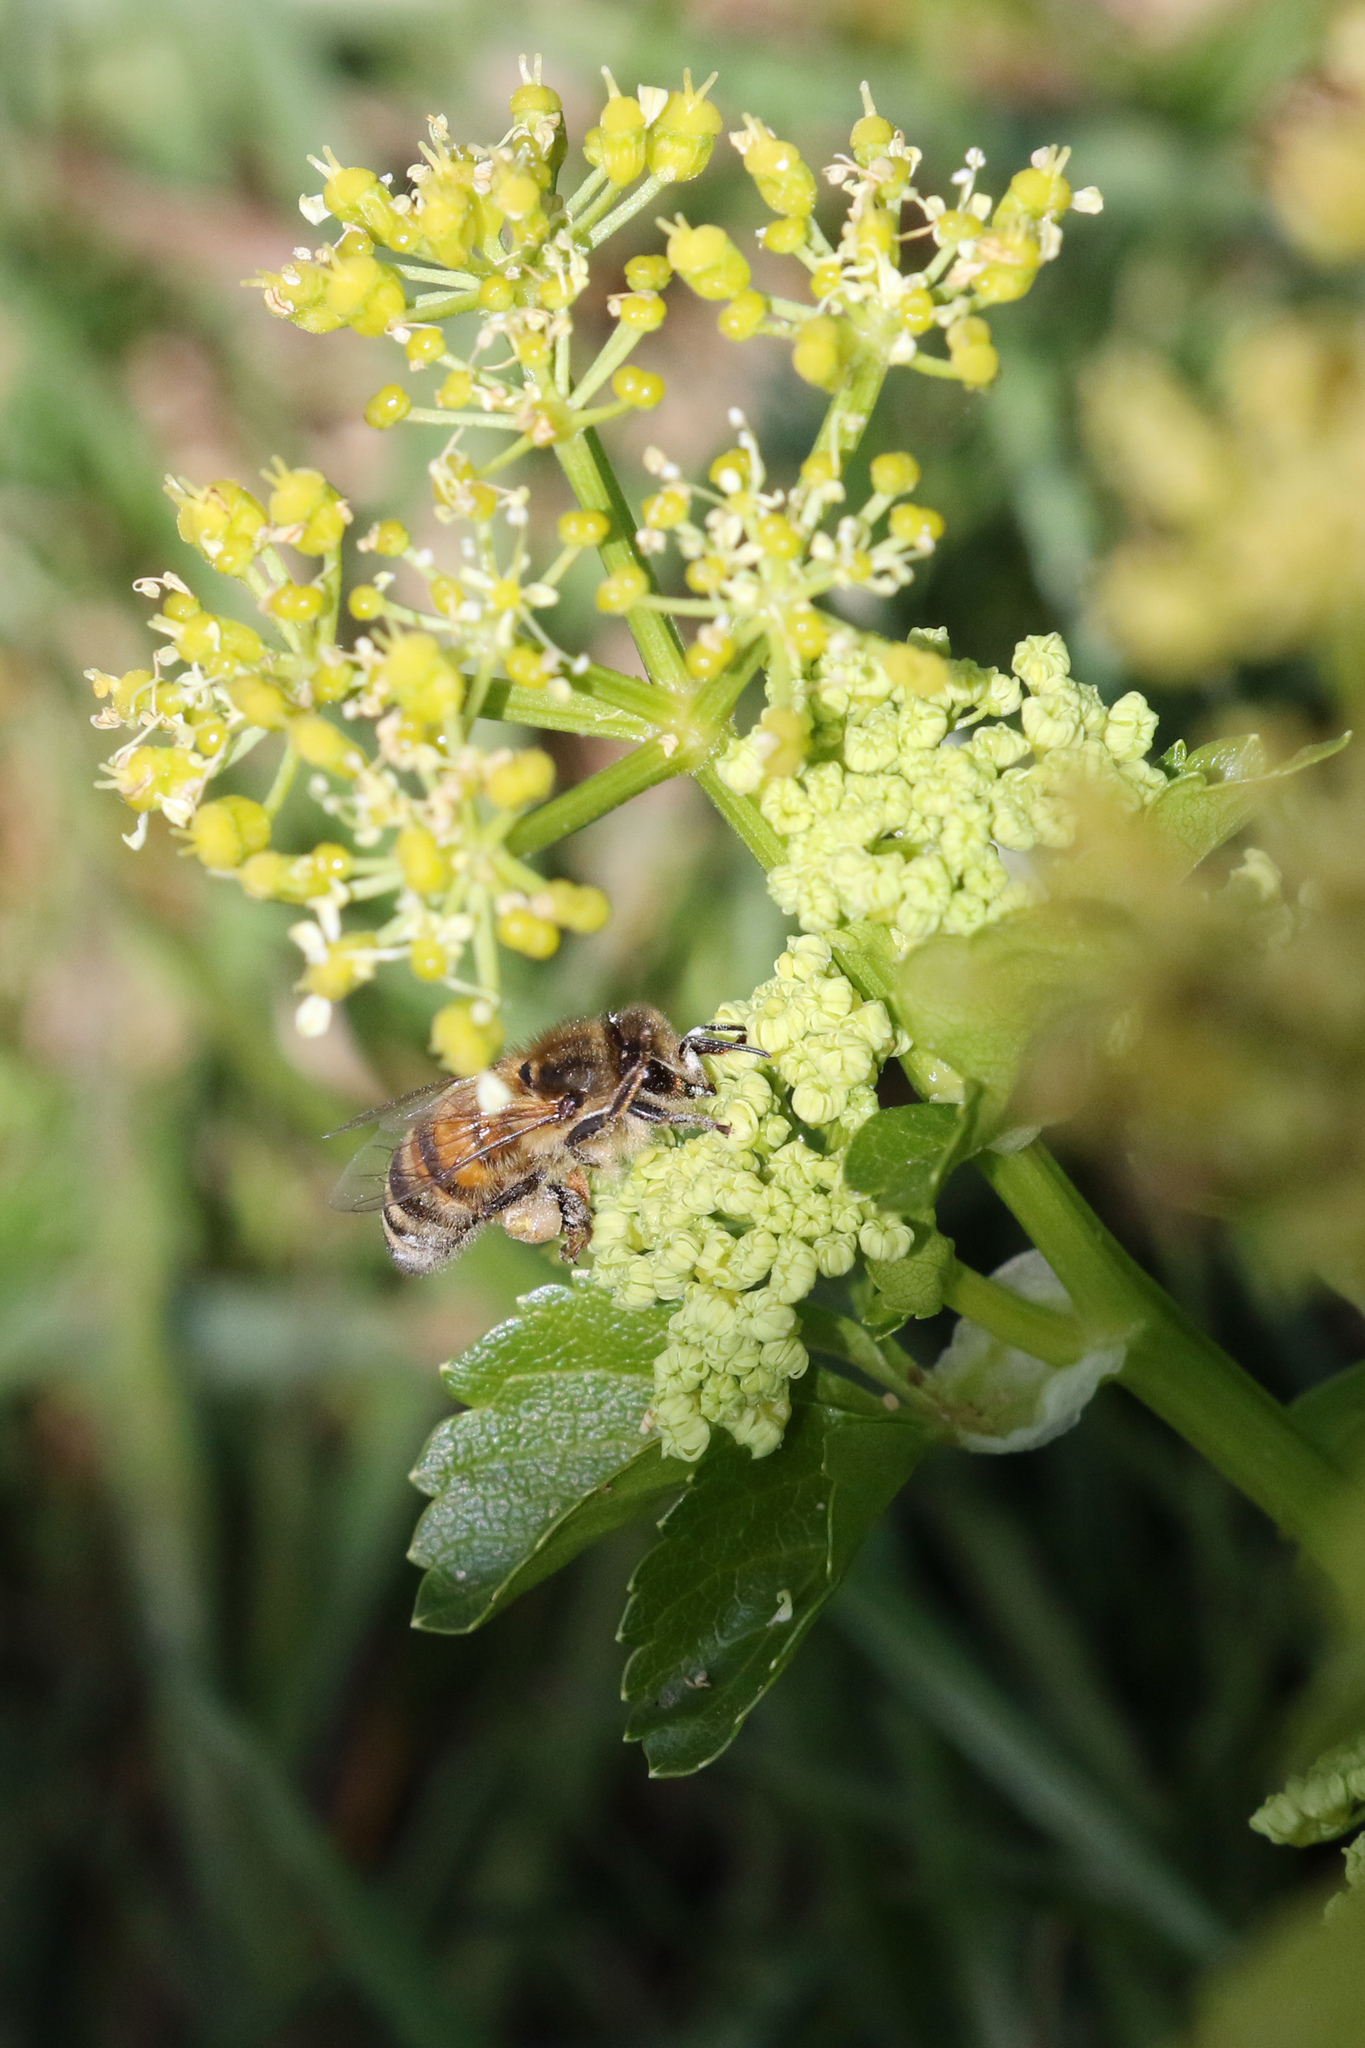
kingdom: Plantae
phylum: Tracheophyta
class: Magnoliopsida
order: Apiales
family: Apiaceae
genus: Smyrnium
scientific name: Smyrnium olusatrum
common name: Alexanders
